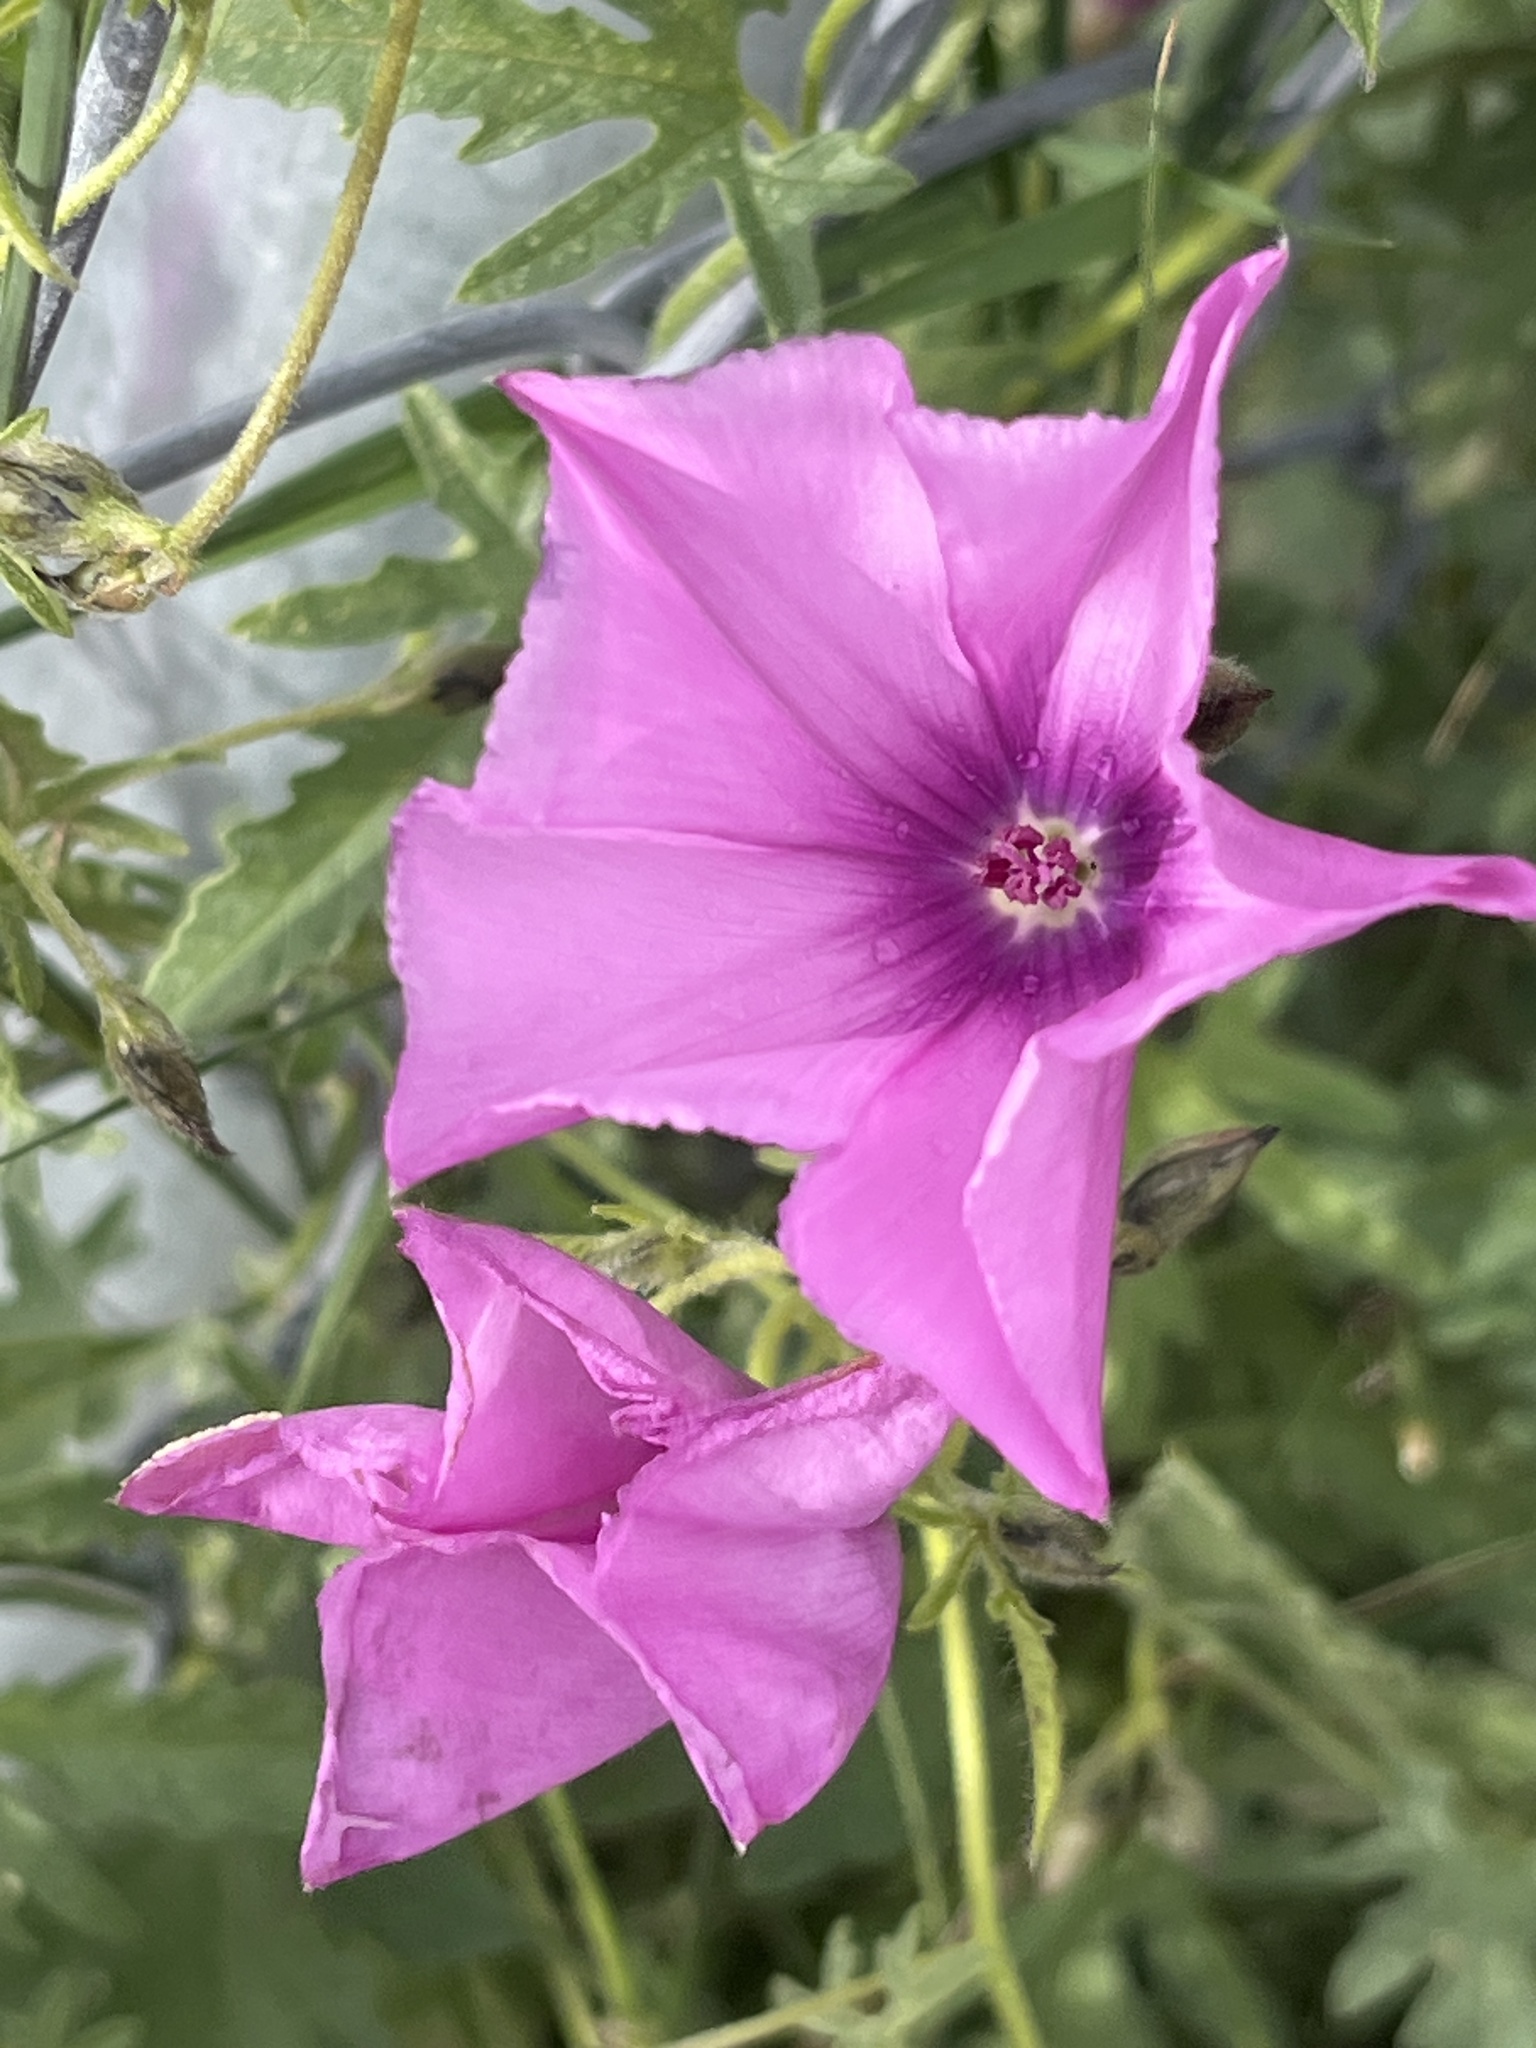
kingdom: Plantae
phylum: Tracheophyta
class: Magnoliopsida
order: Solanales
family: Convolvulaceae
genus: Convolvulus
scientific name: Convolvulus althaeoides
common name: Mallow bindweed
